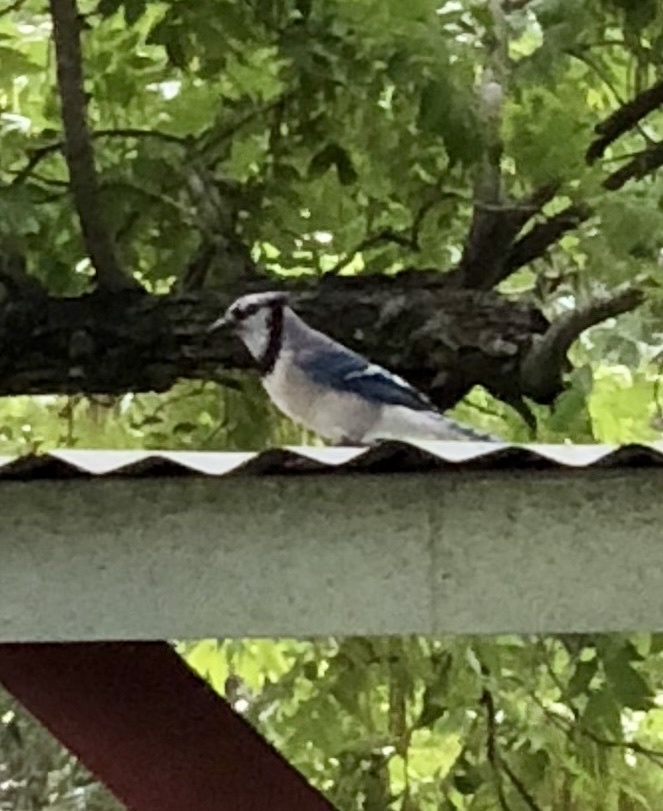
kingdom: Animalia
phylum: Chordata
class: Aves
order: Passeriformes
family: Corvidae
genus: Cyanocitta
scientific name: Cyanocitta cristata
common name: Blue jay
